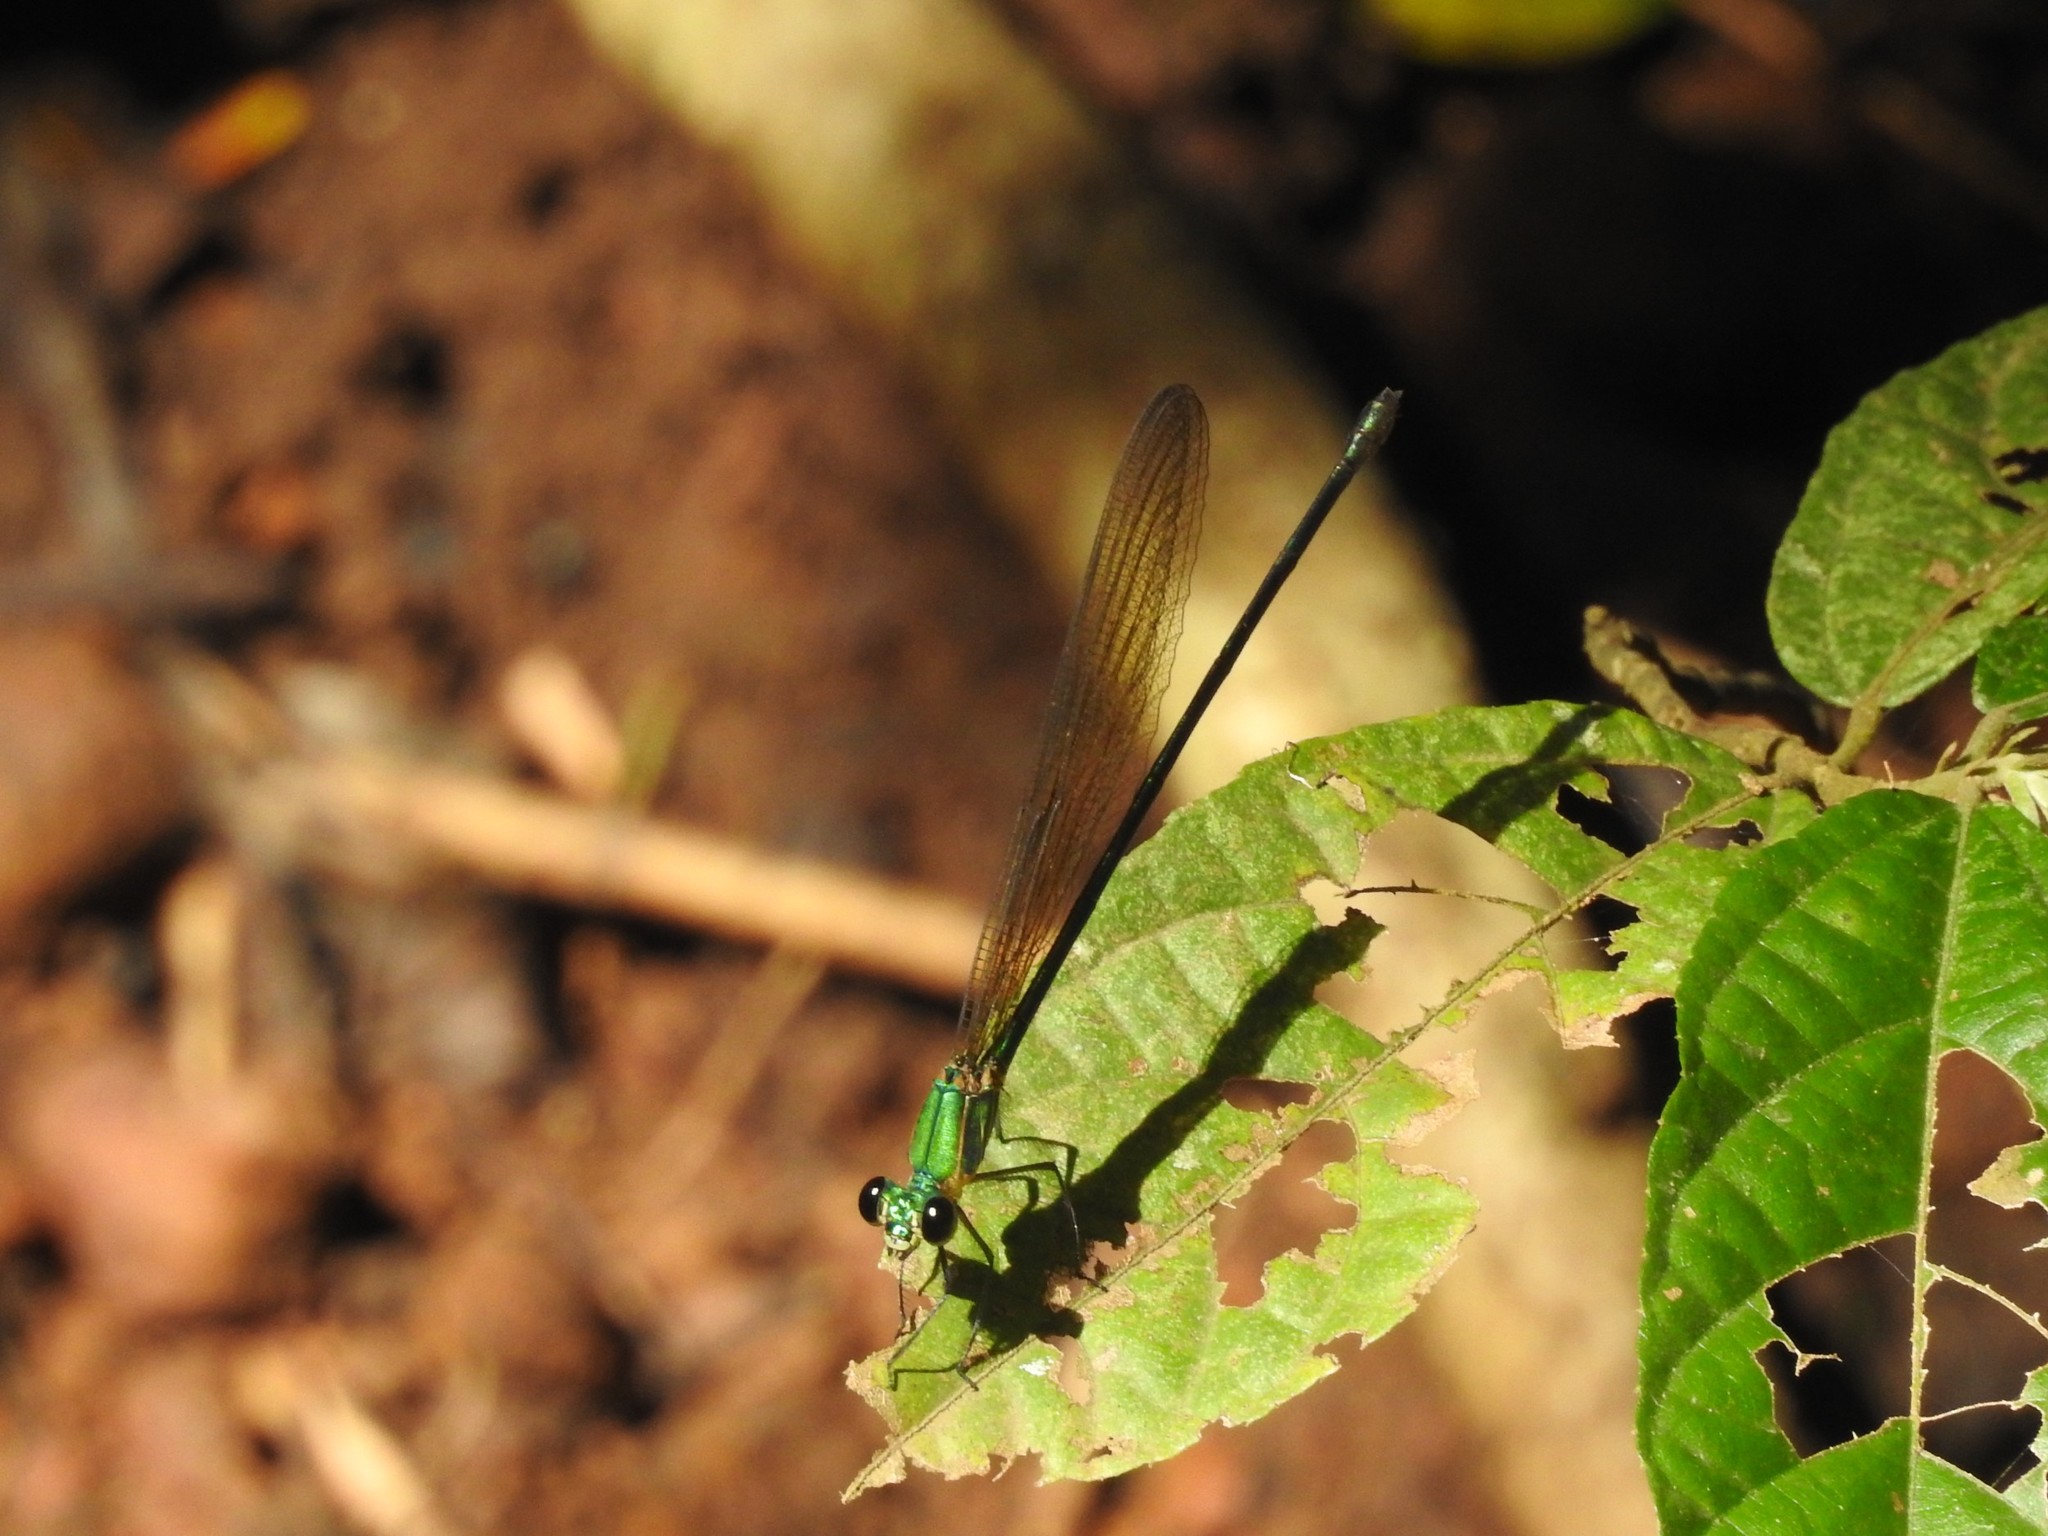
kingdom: Animalia
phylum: Arthropoda
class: Insecta
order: Odonata
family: Calopterygidae
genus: Vestalis
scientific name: Vestalis gracilis
